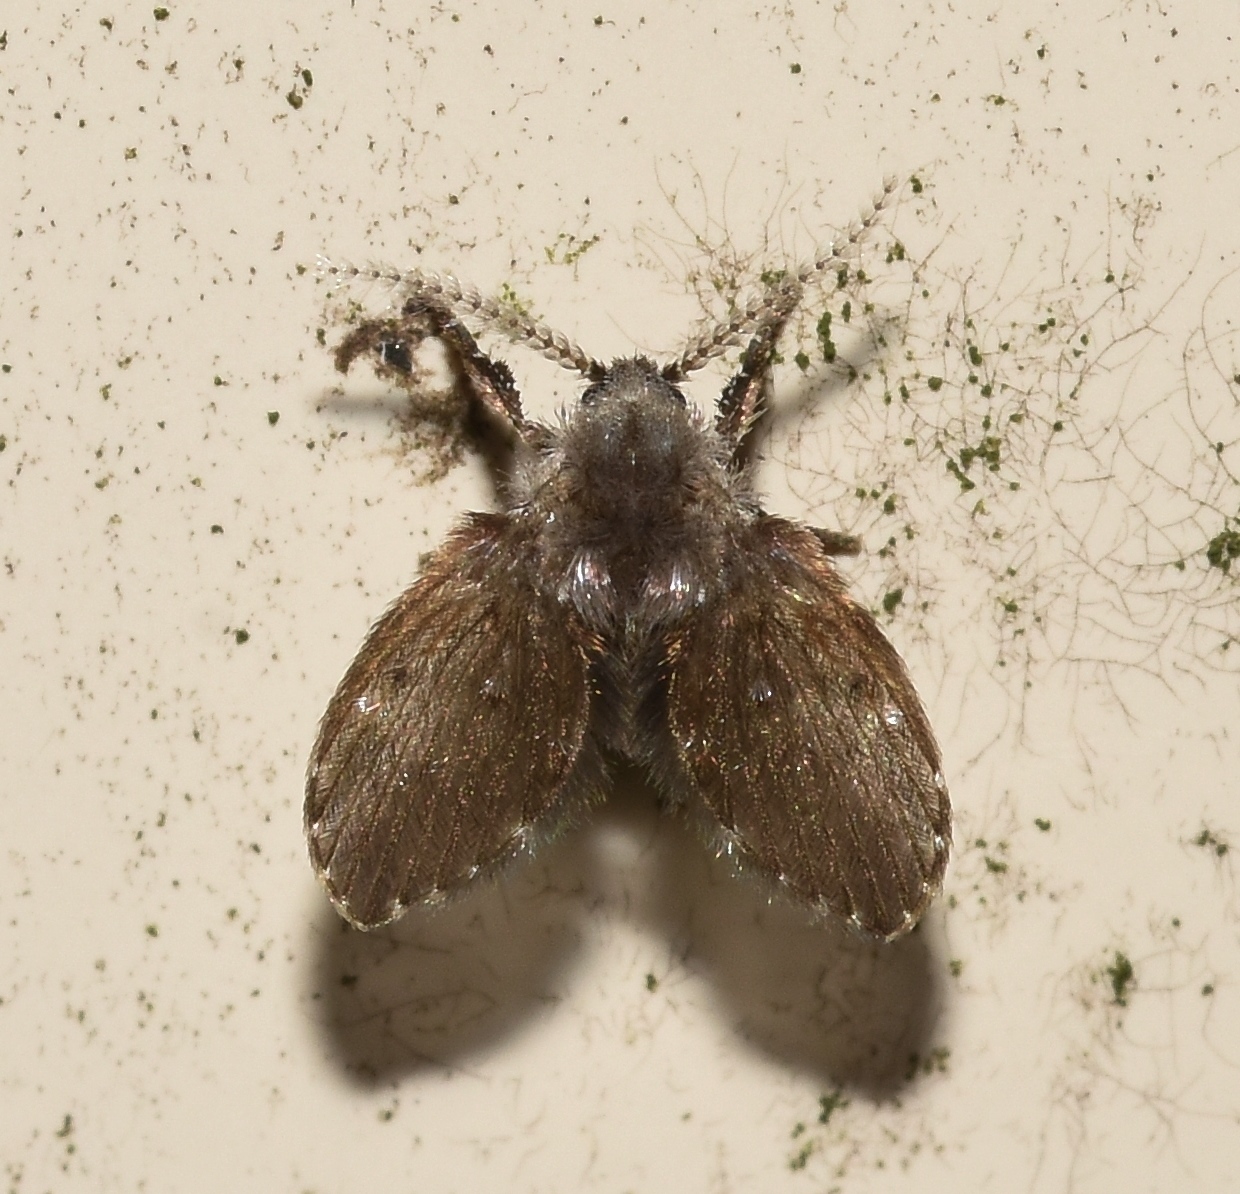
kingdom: Animalia
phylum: Arthropoda
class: Insecta
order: Diptera
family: Psychodidae
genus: Clogmia
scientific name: Clogmia albipunctatus
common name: White-spotted moth fly
